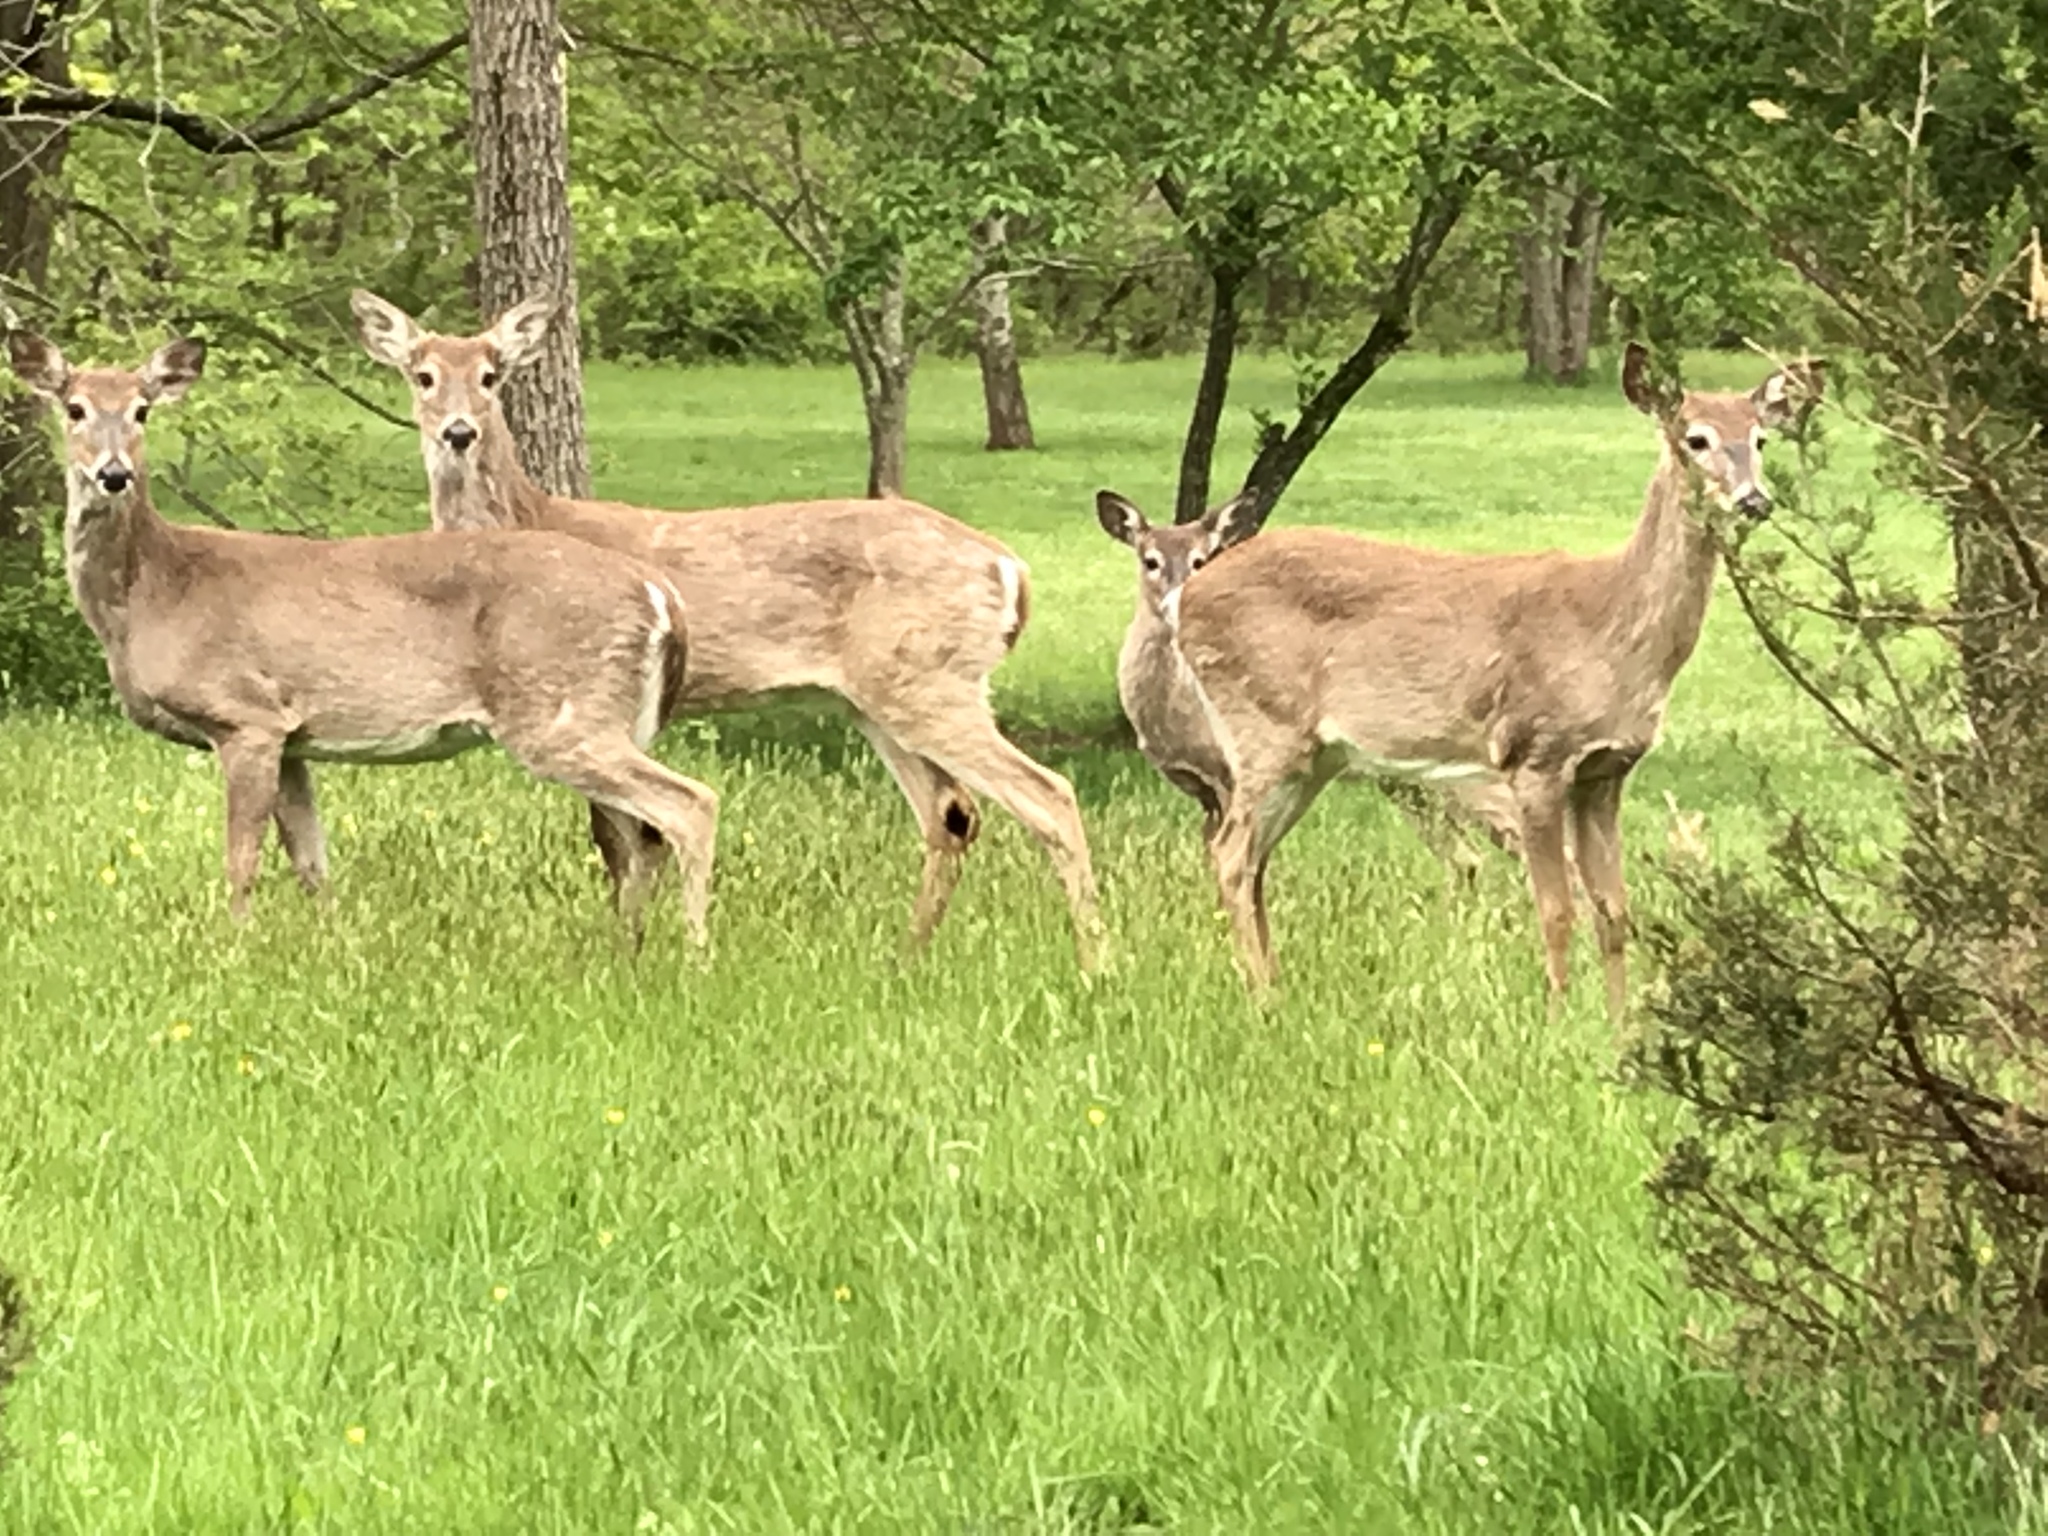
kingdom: Animalia
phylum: Chordata
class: Mammalia
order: Artiodactyla
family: Cervidae
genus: Odocoileus
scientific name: Odocoileus virginianus
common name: White-tailed deer
